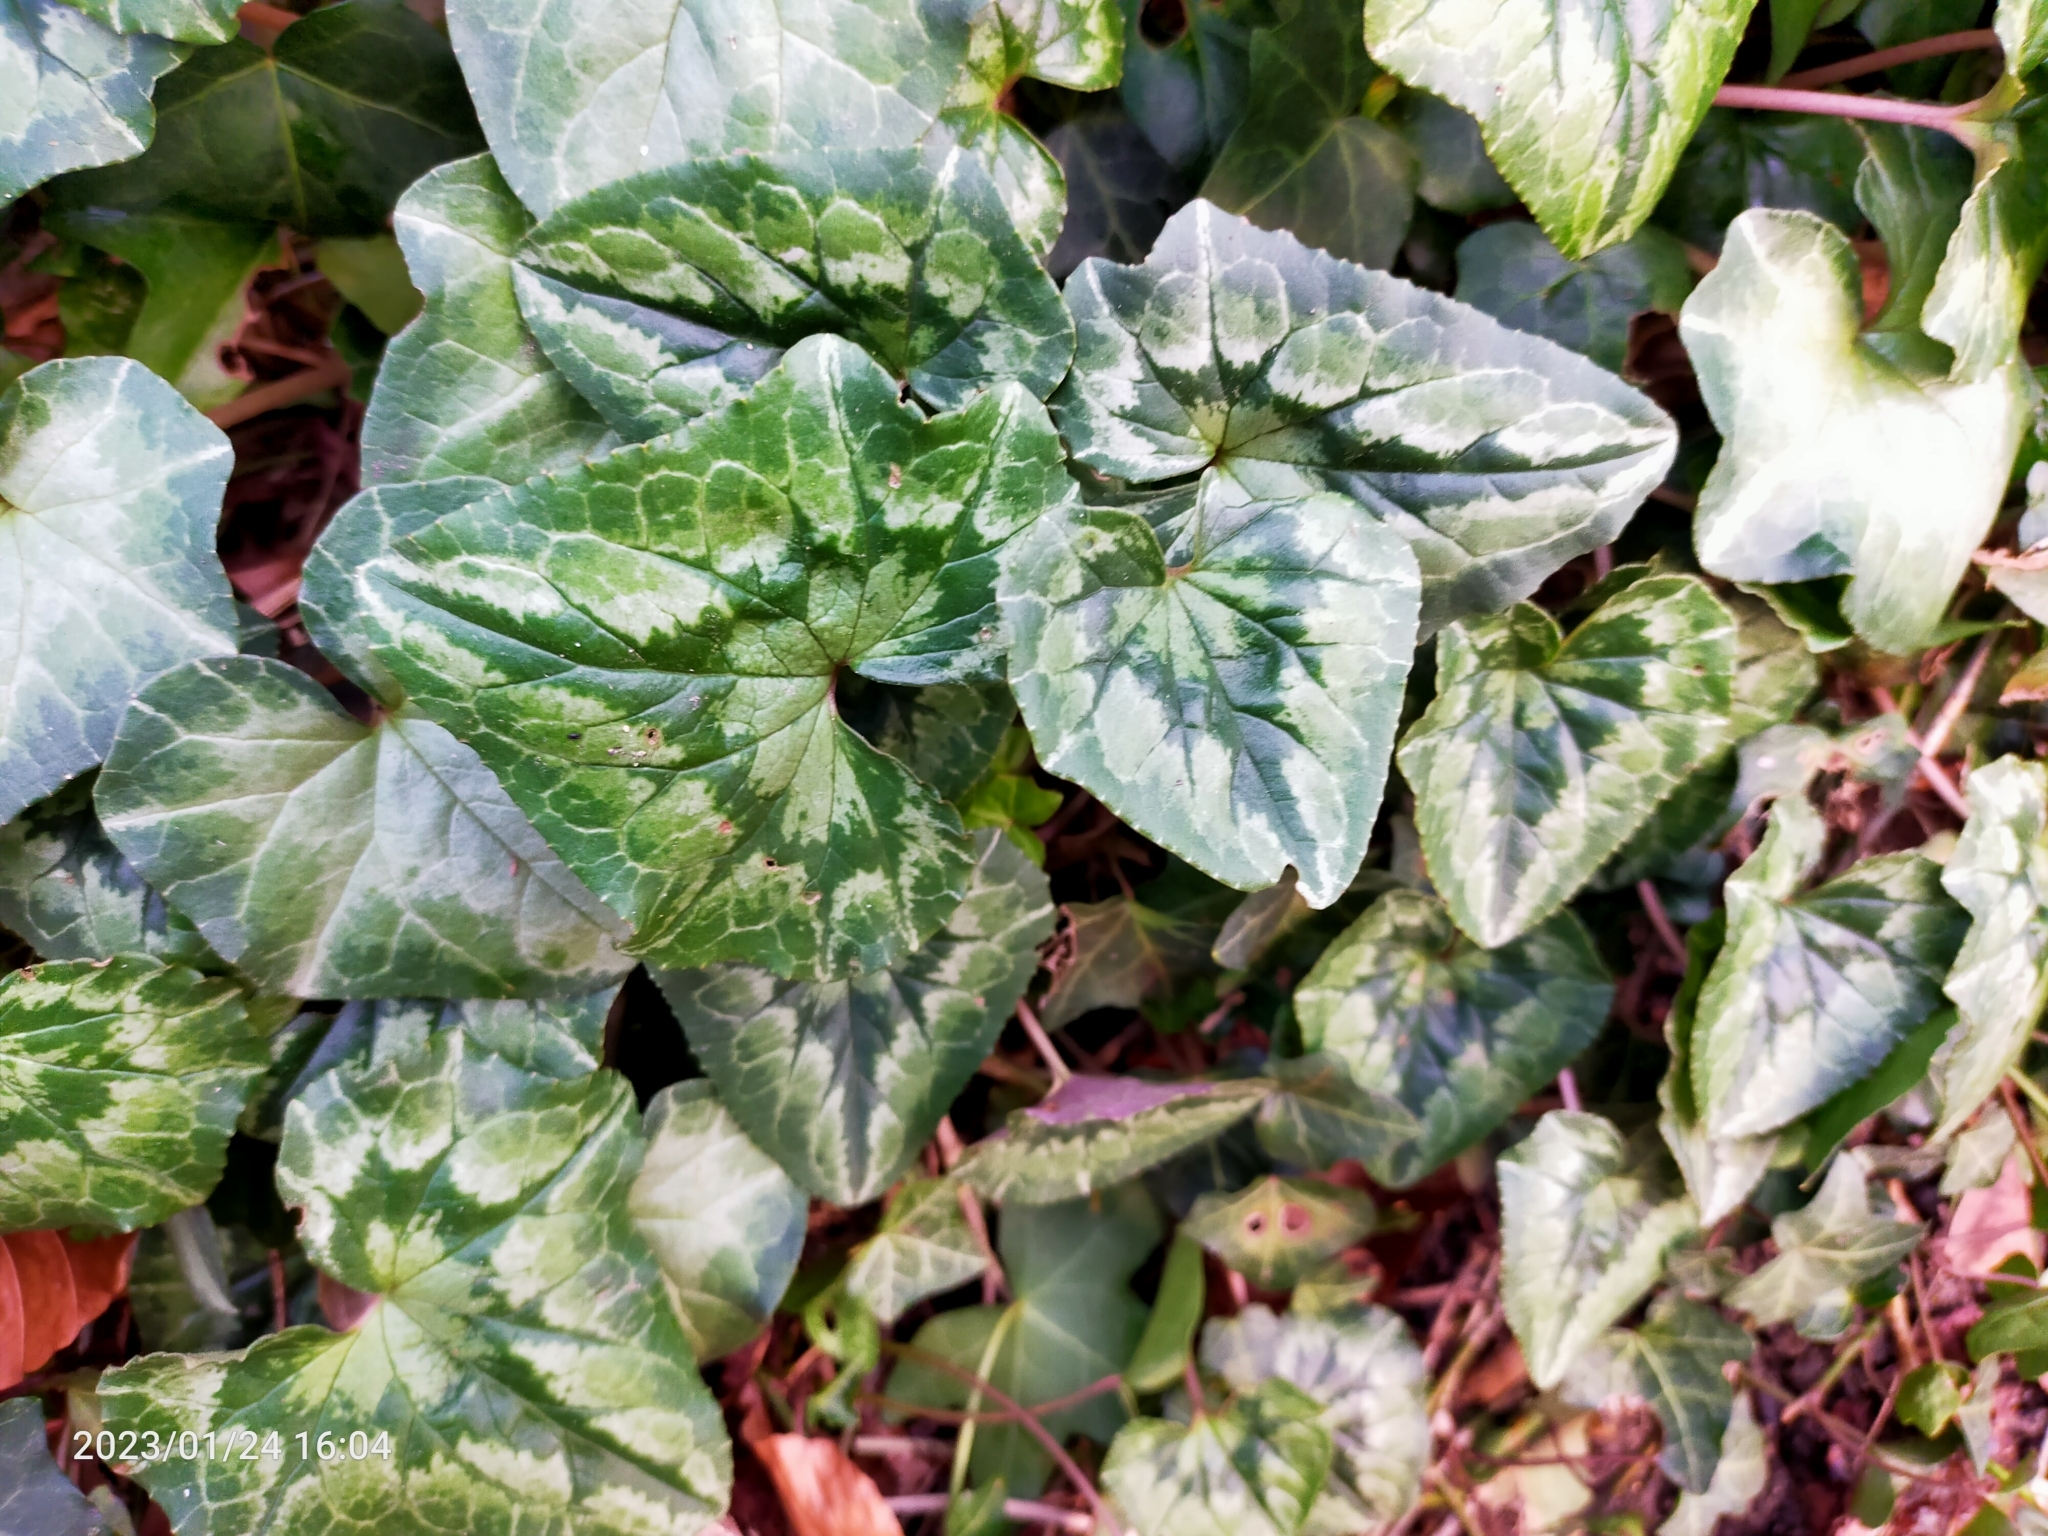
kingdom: Plantae
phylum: Tracheophyta
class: Magnoliopsida
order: Ericales
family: Primulaceae
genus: Cyclamen
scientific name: Cyclamen hederifolium
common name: Sowbread
